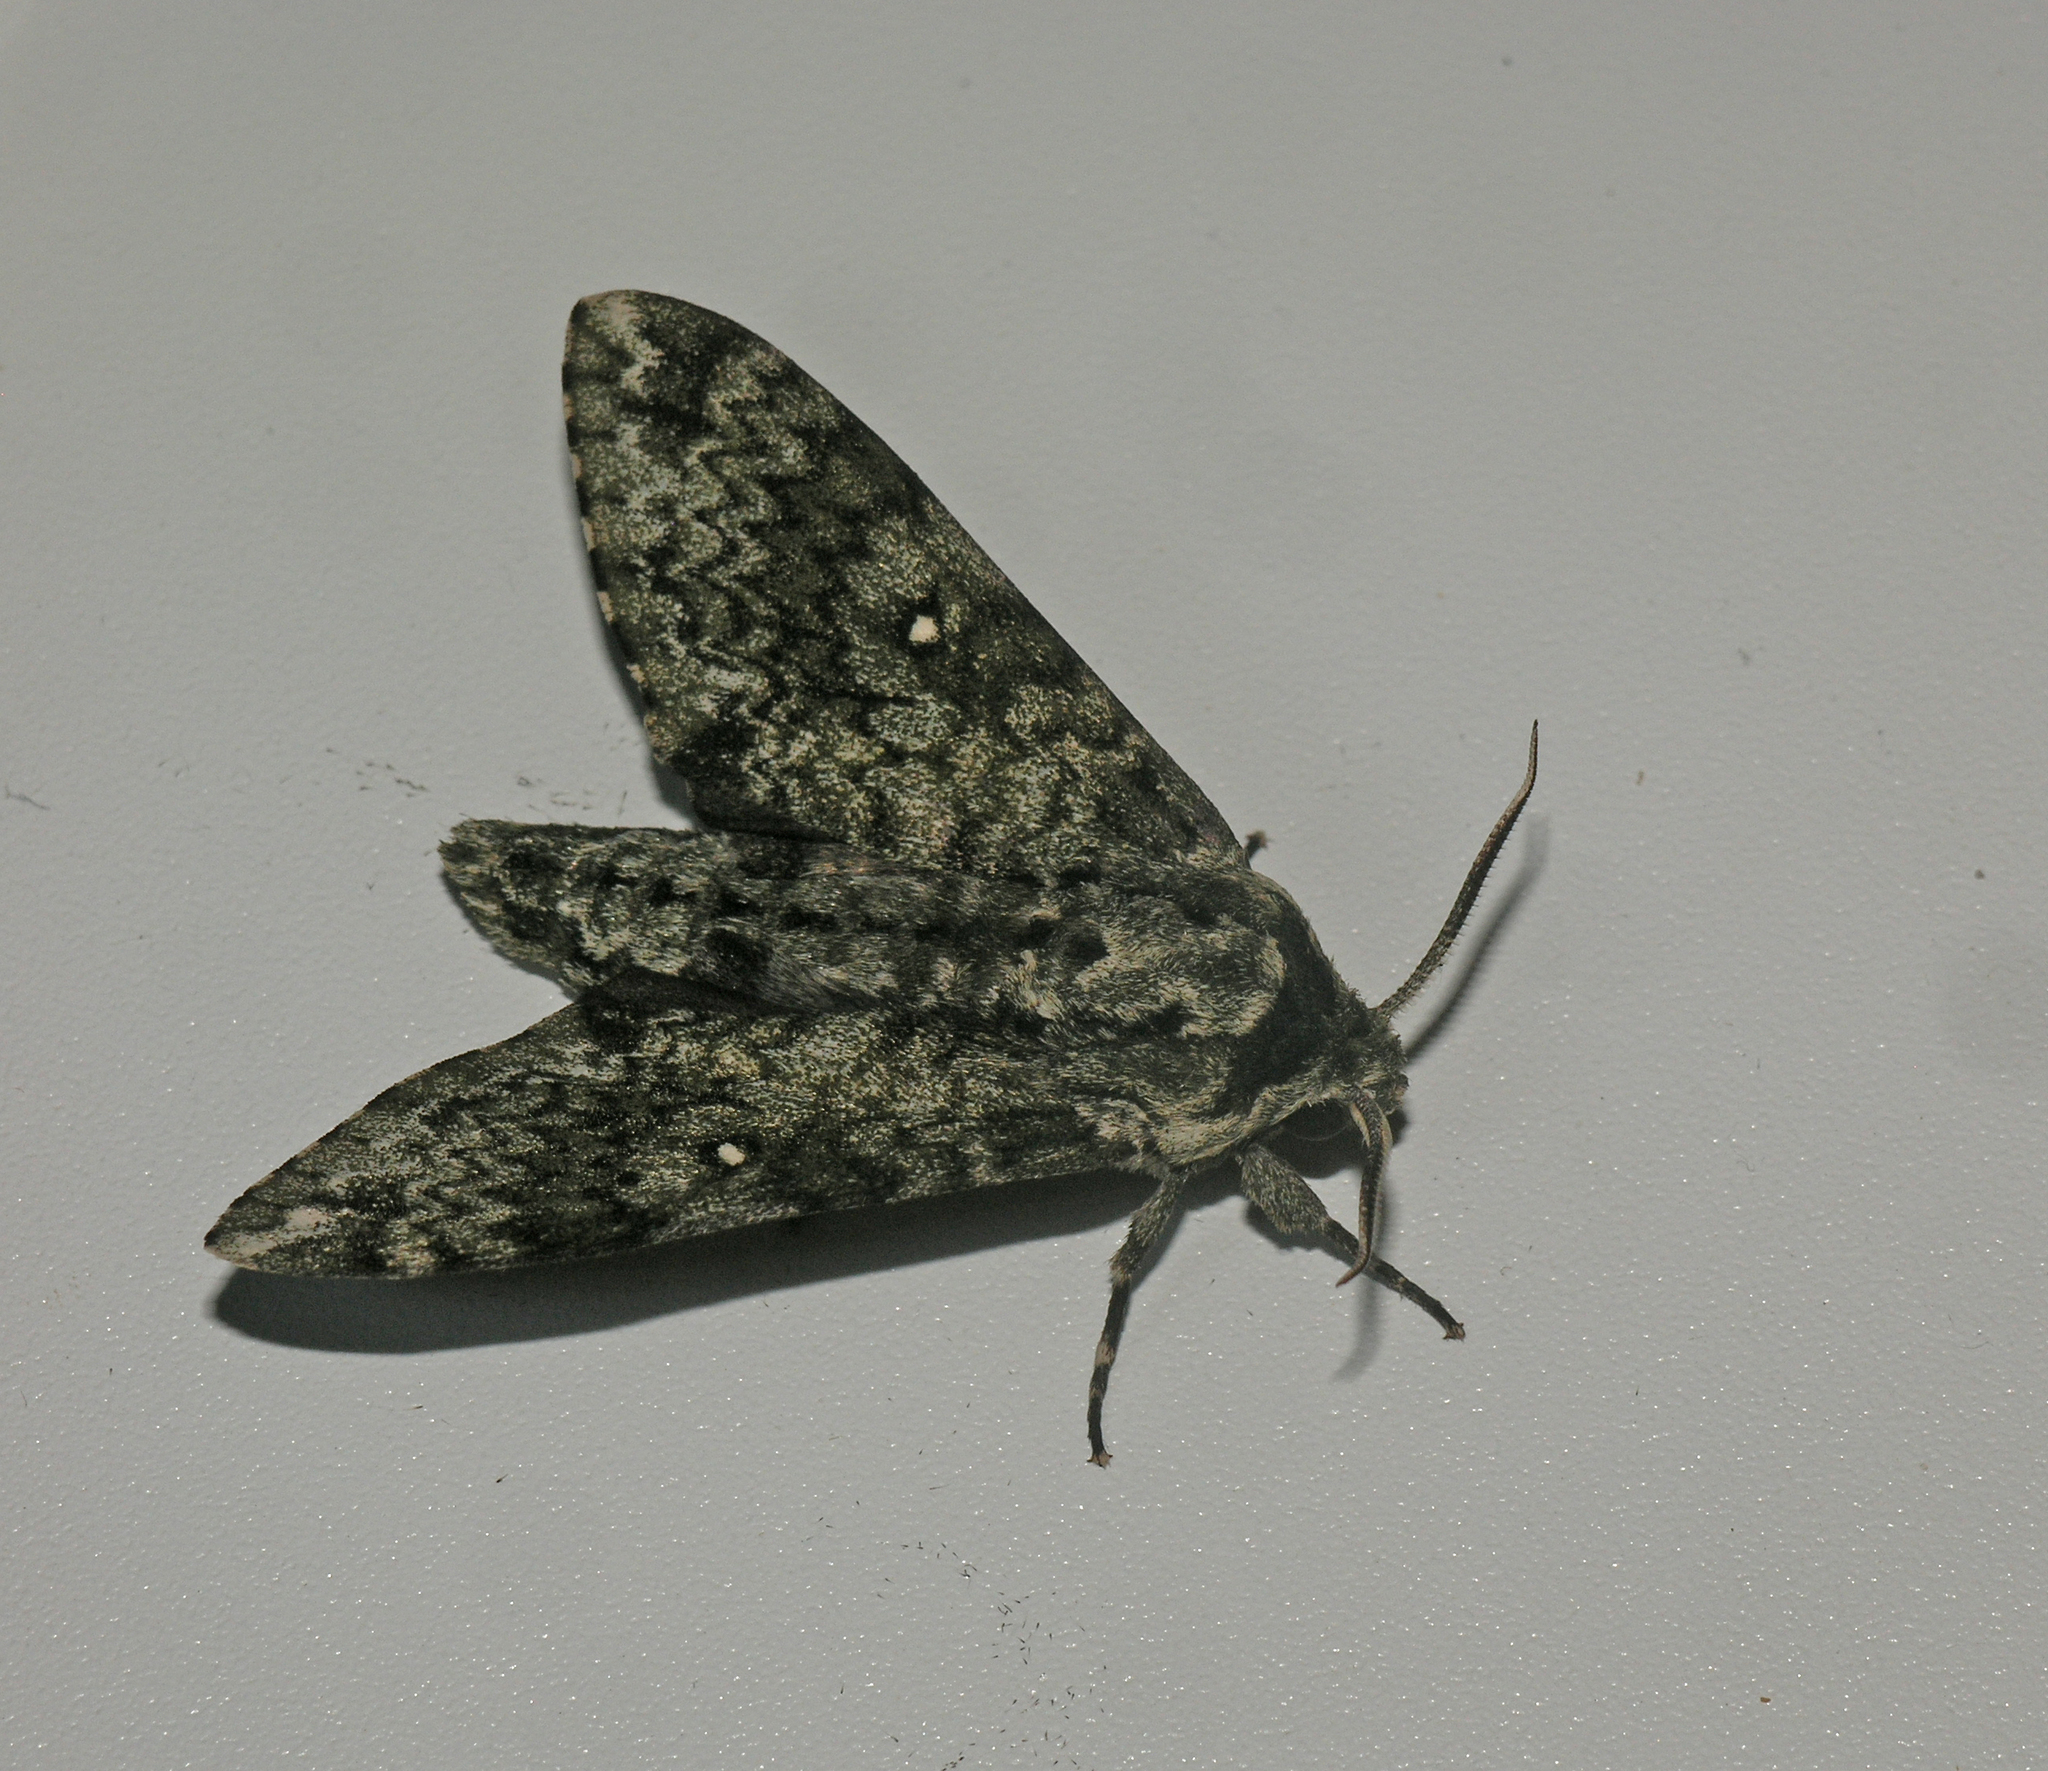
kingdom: Animalia
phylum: Arthropoda
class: Insecta
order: Lepidoptera
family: Sphingidae
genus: Dolbina
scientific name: Dolbina tancrei
